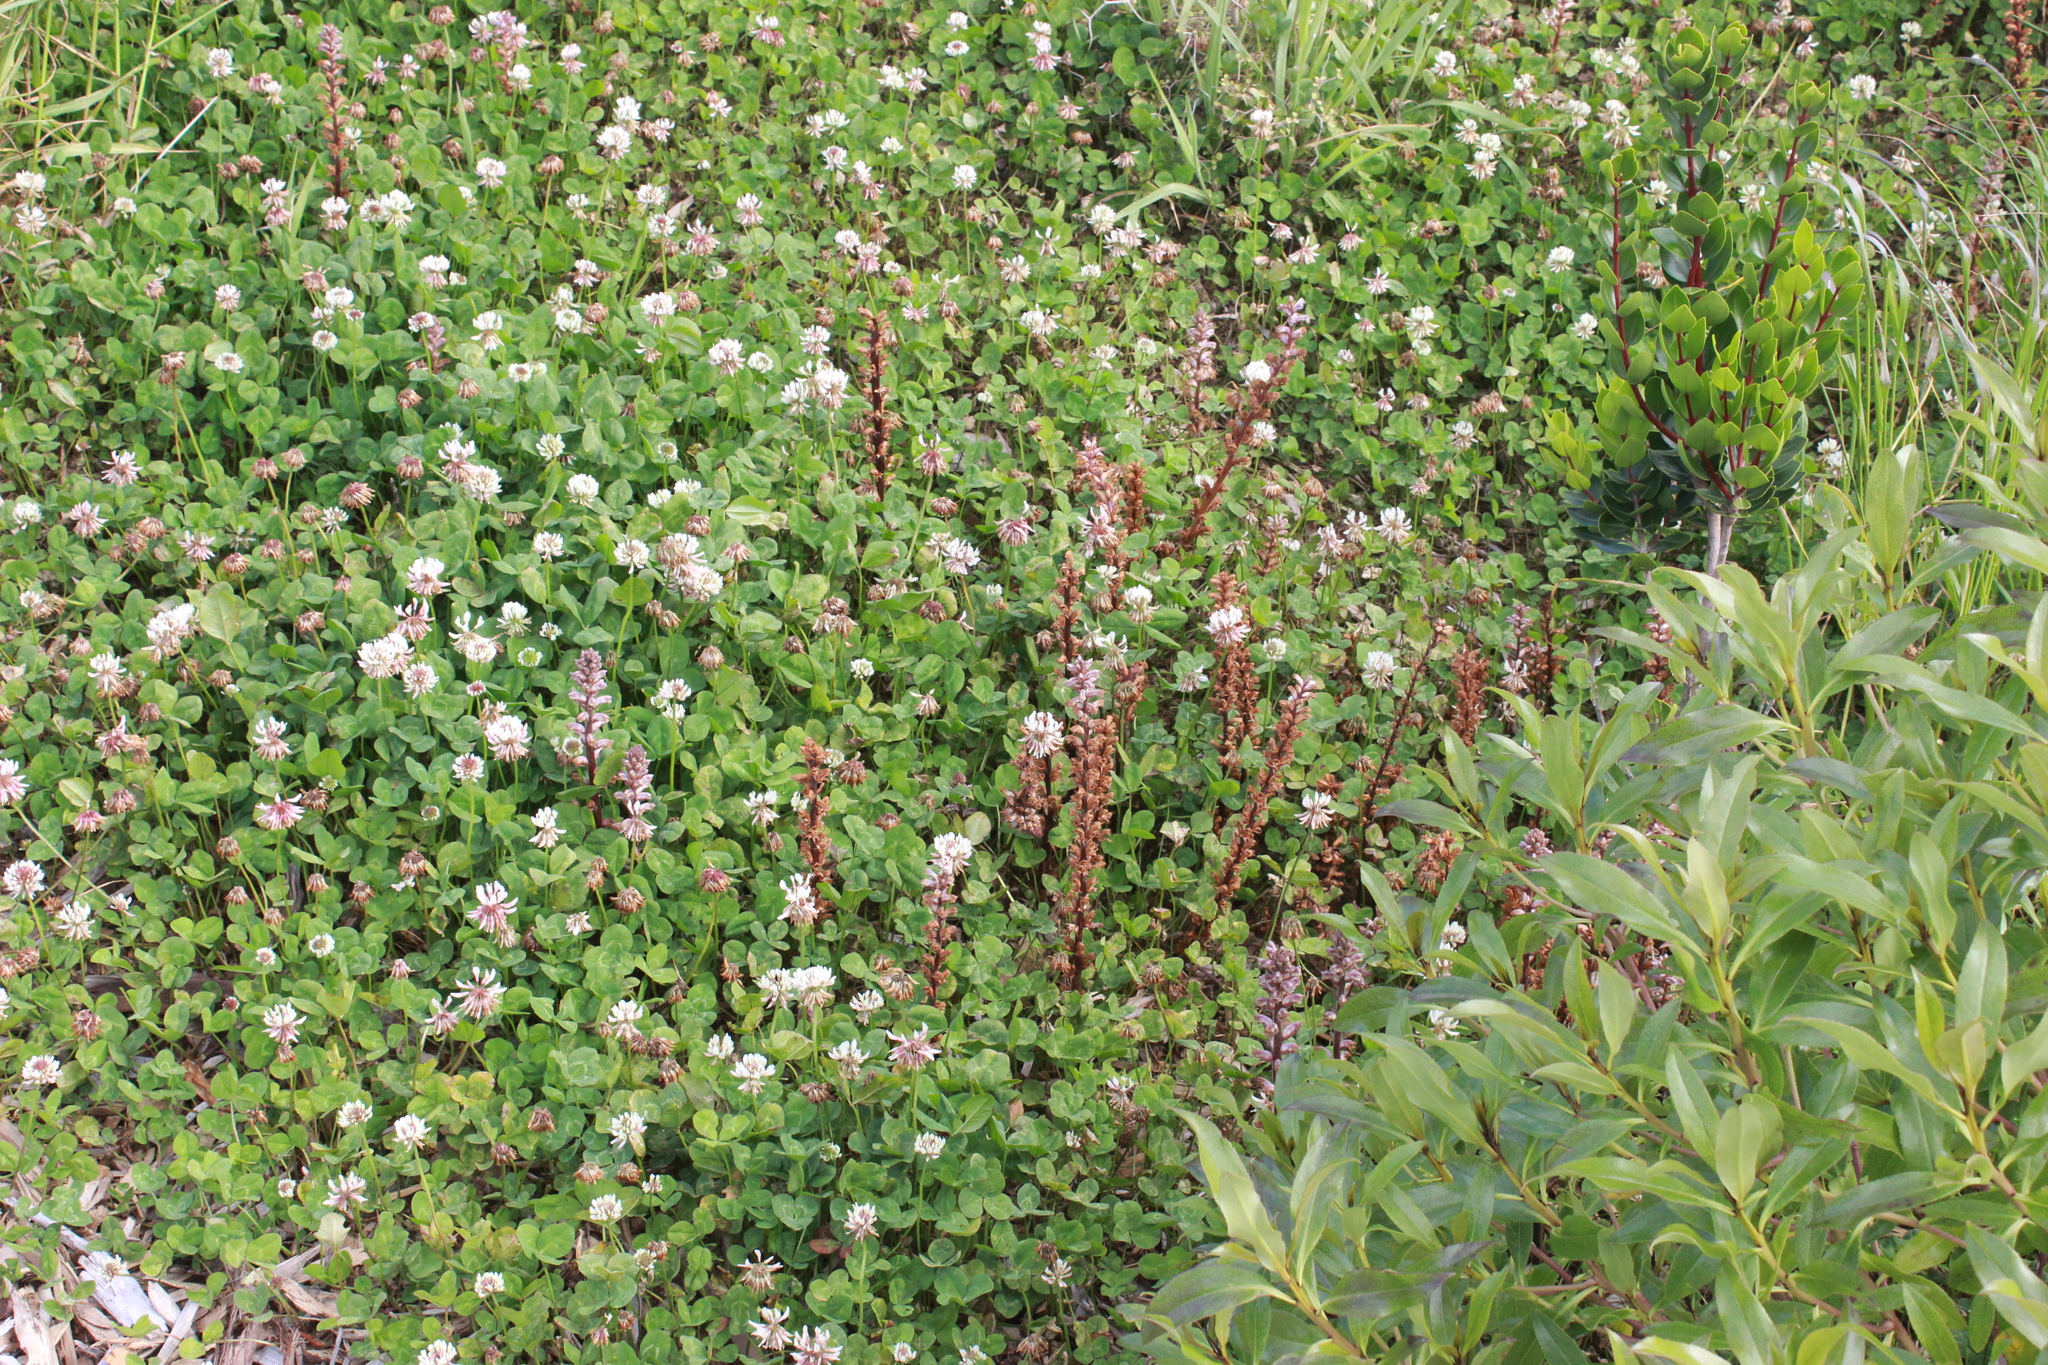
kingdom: Plantae
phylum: Tracheophyta
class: Magnoliopsida
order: Lamiales
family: Orobanchaceae
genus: Orobanche
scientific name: Orobanche minor
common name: Common broomrape
